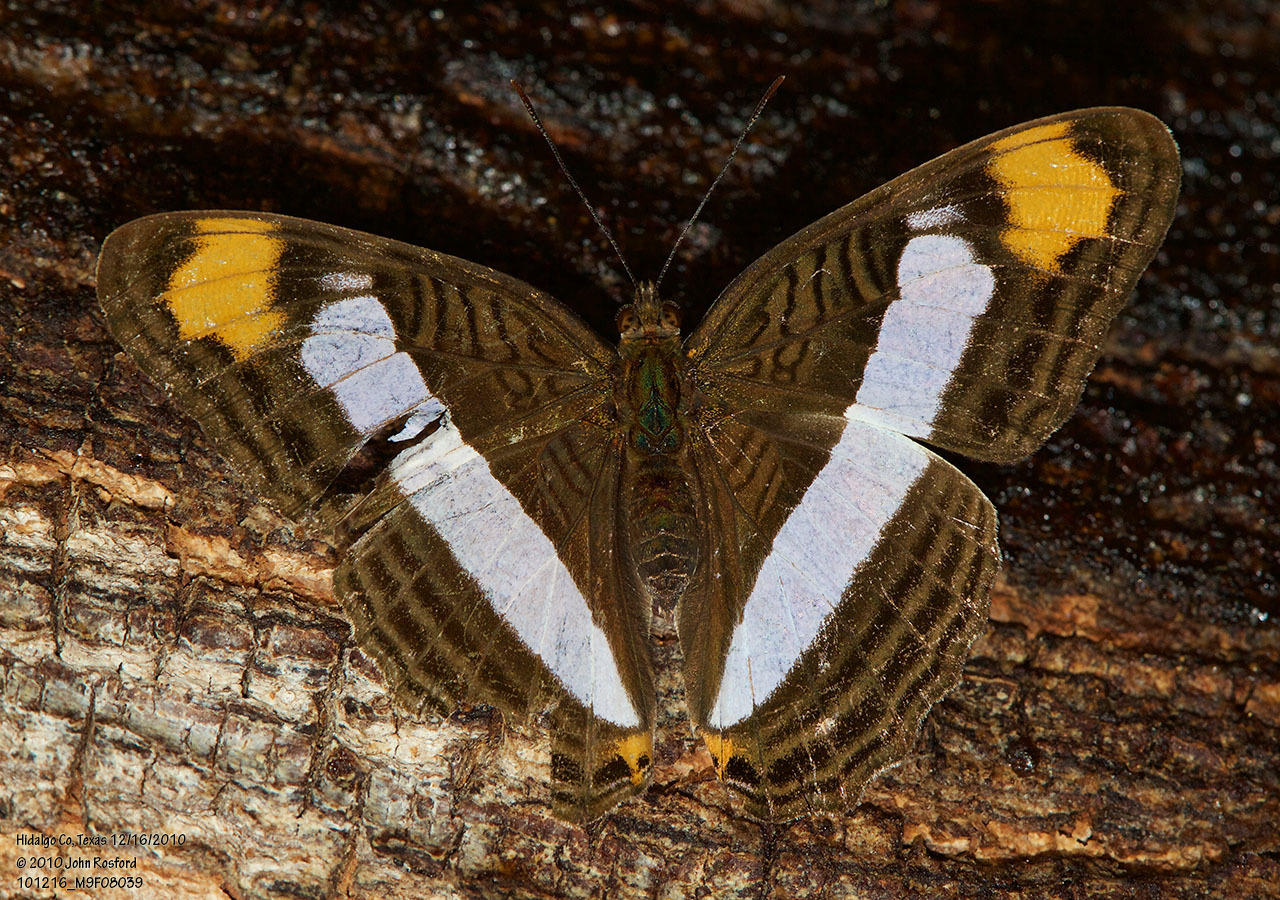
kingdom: Animalia
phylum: Arthropoda
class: Insecta
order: Lepidoptera
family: Nymphalidae
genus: Limenitis
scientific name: Limenitis Adelpha basiloides
